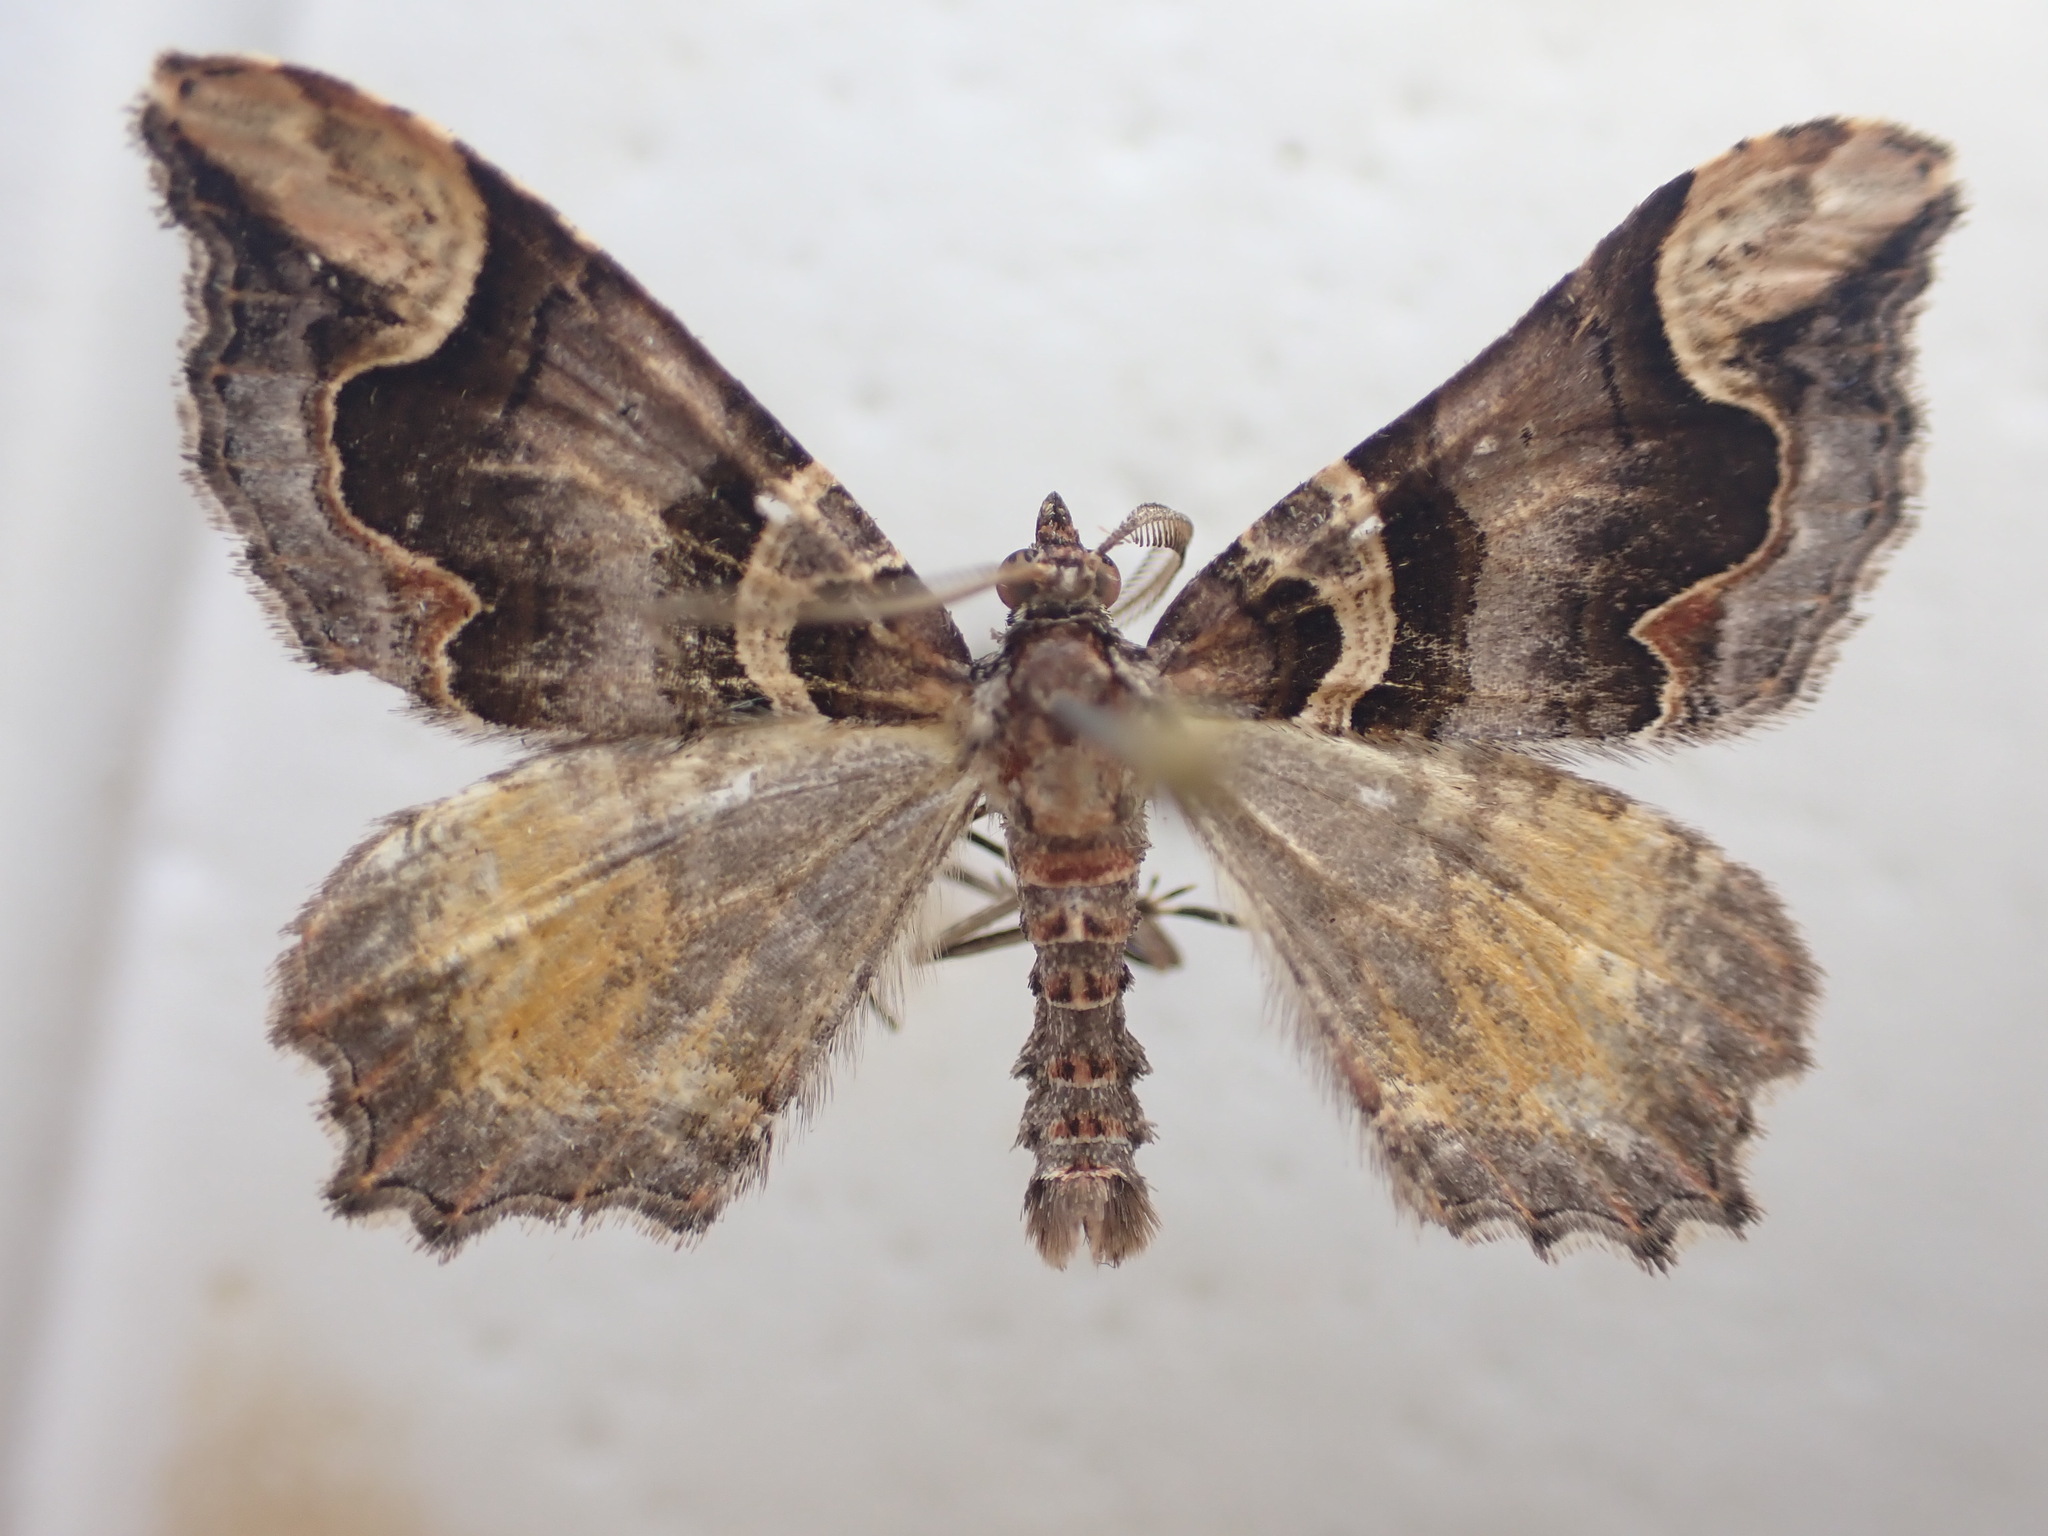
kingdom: Animalia
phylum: Arthropoda
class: Insecta
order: Lepidoptera
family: Geometridae
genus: Asaphodes
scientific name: Asaphodes chlamydota
